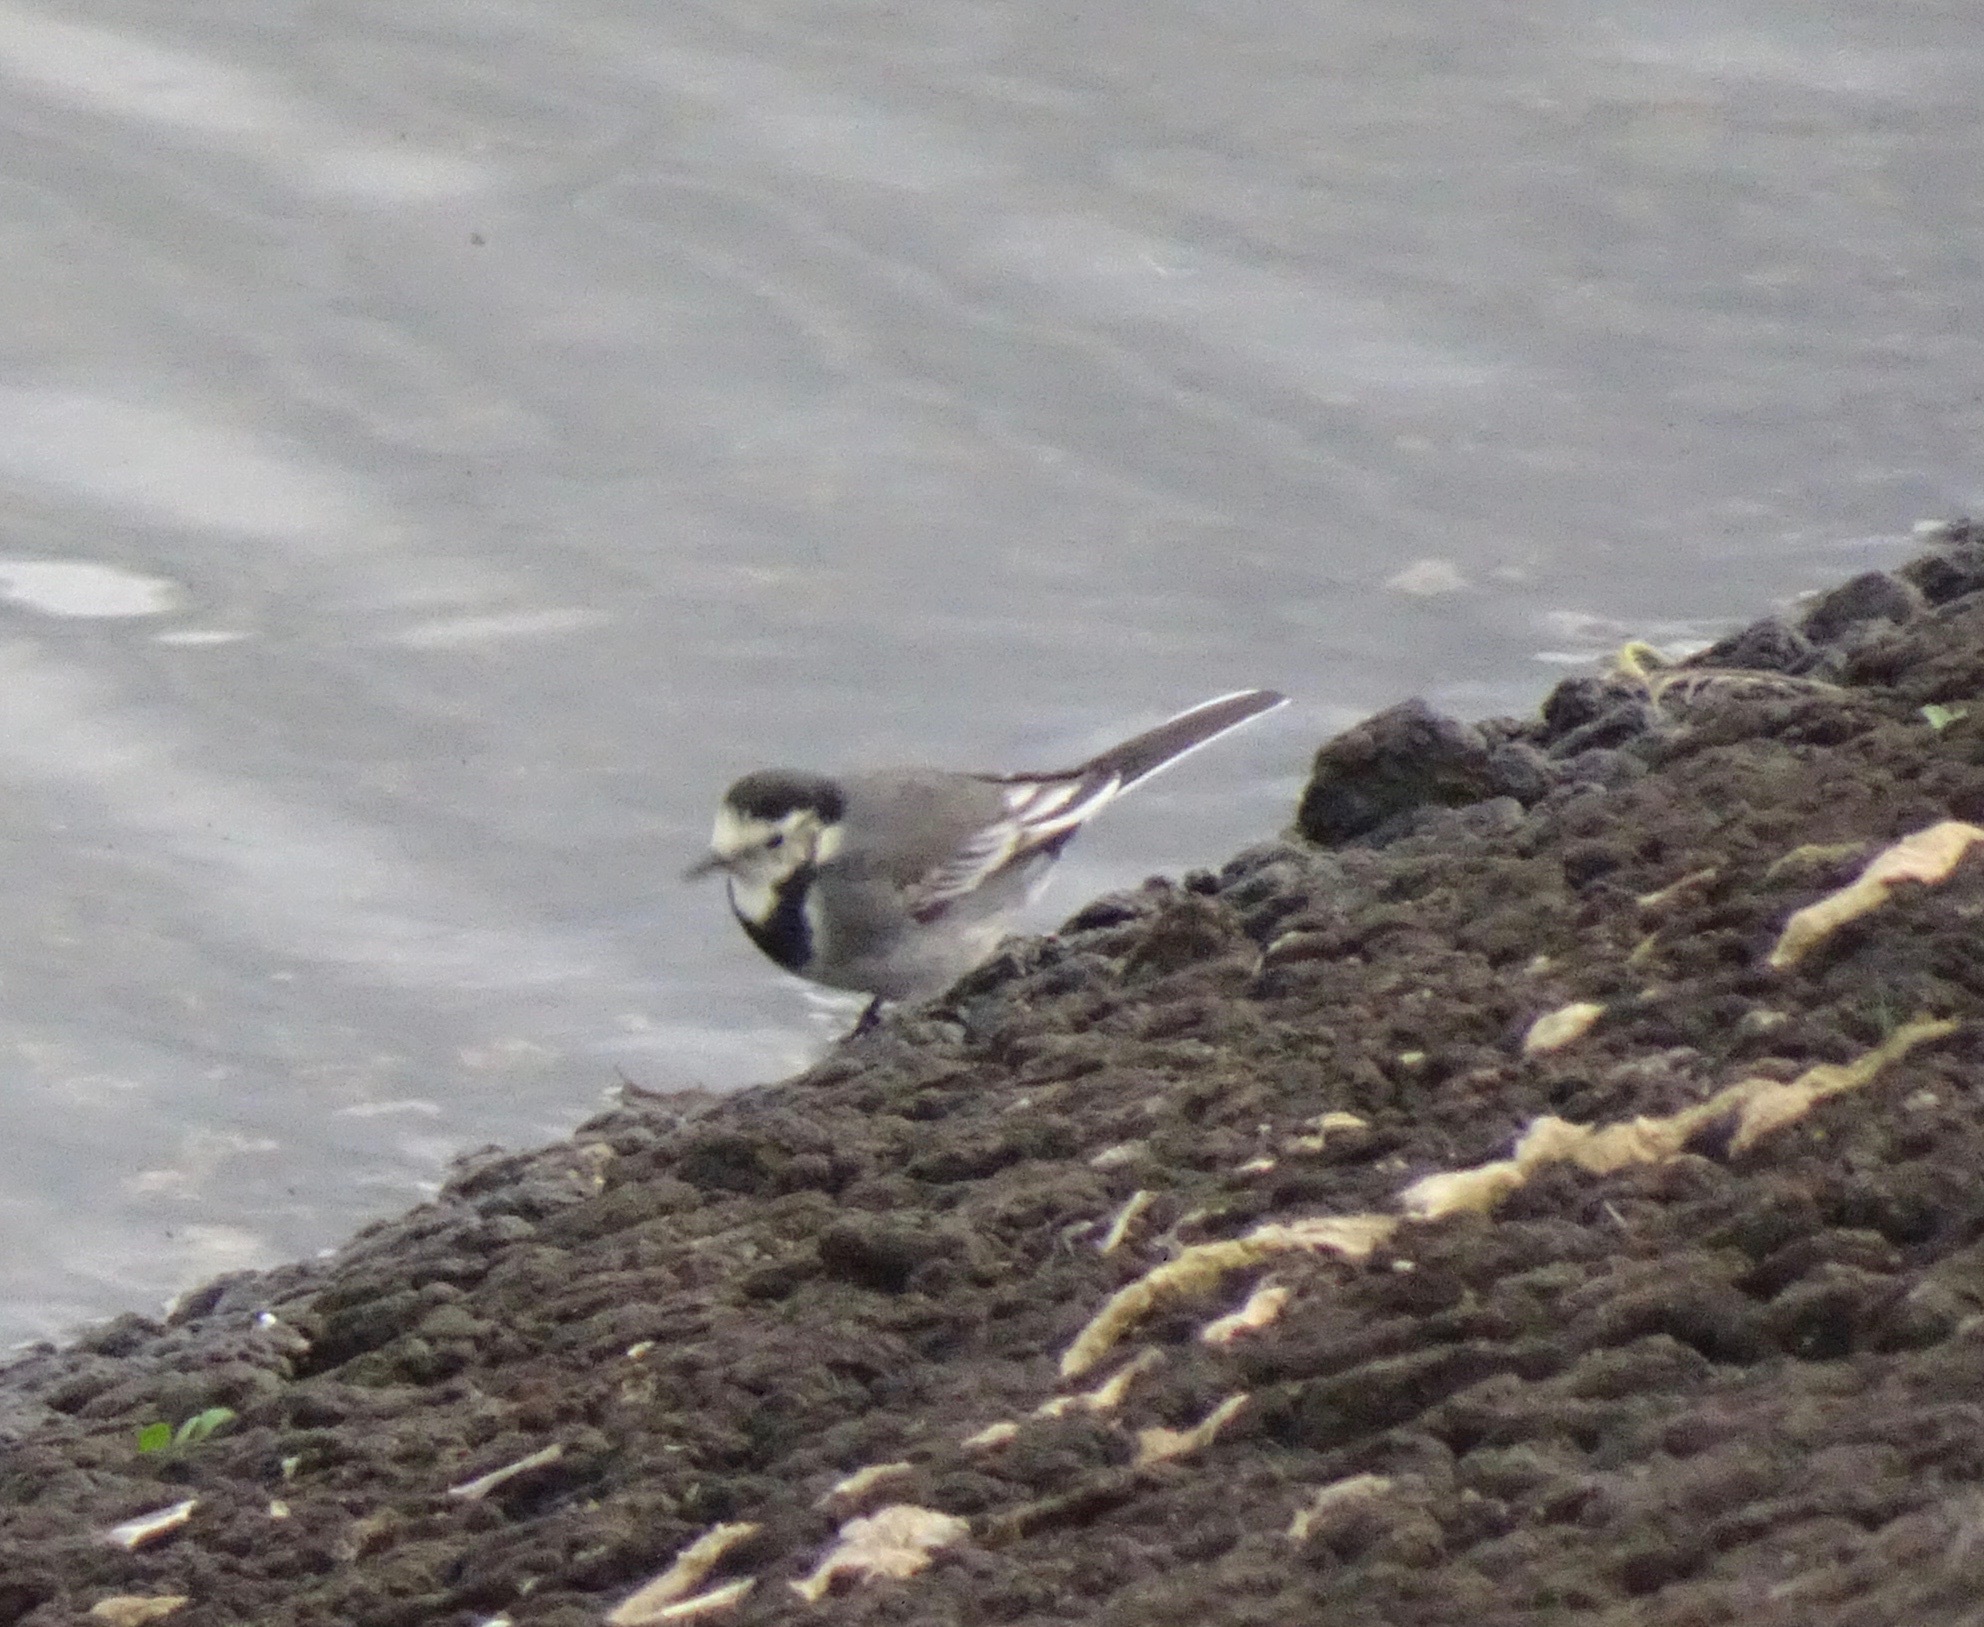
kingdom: Animalia
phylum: Chordata
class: Aves
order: Passeriformes
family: Motacillidae
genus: Motacilla
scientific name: Motacilla alba
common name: White wagtail
